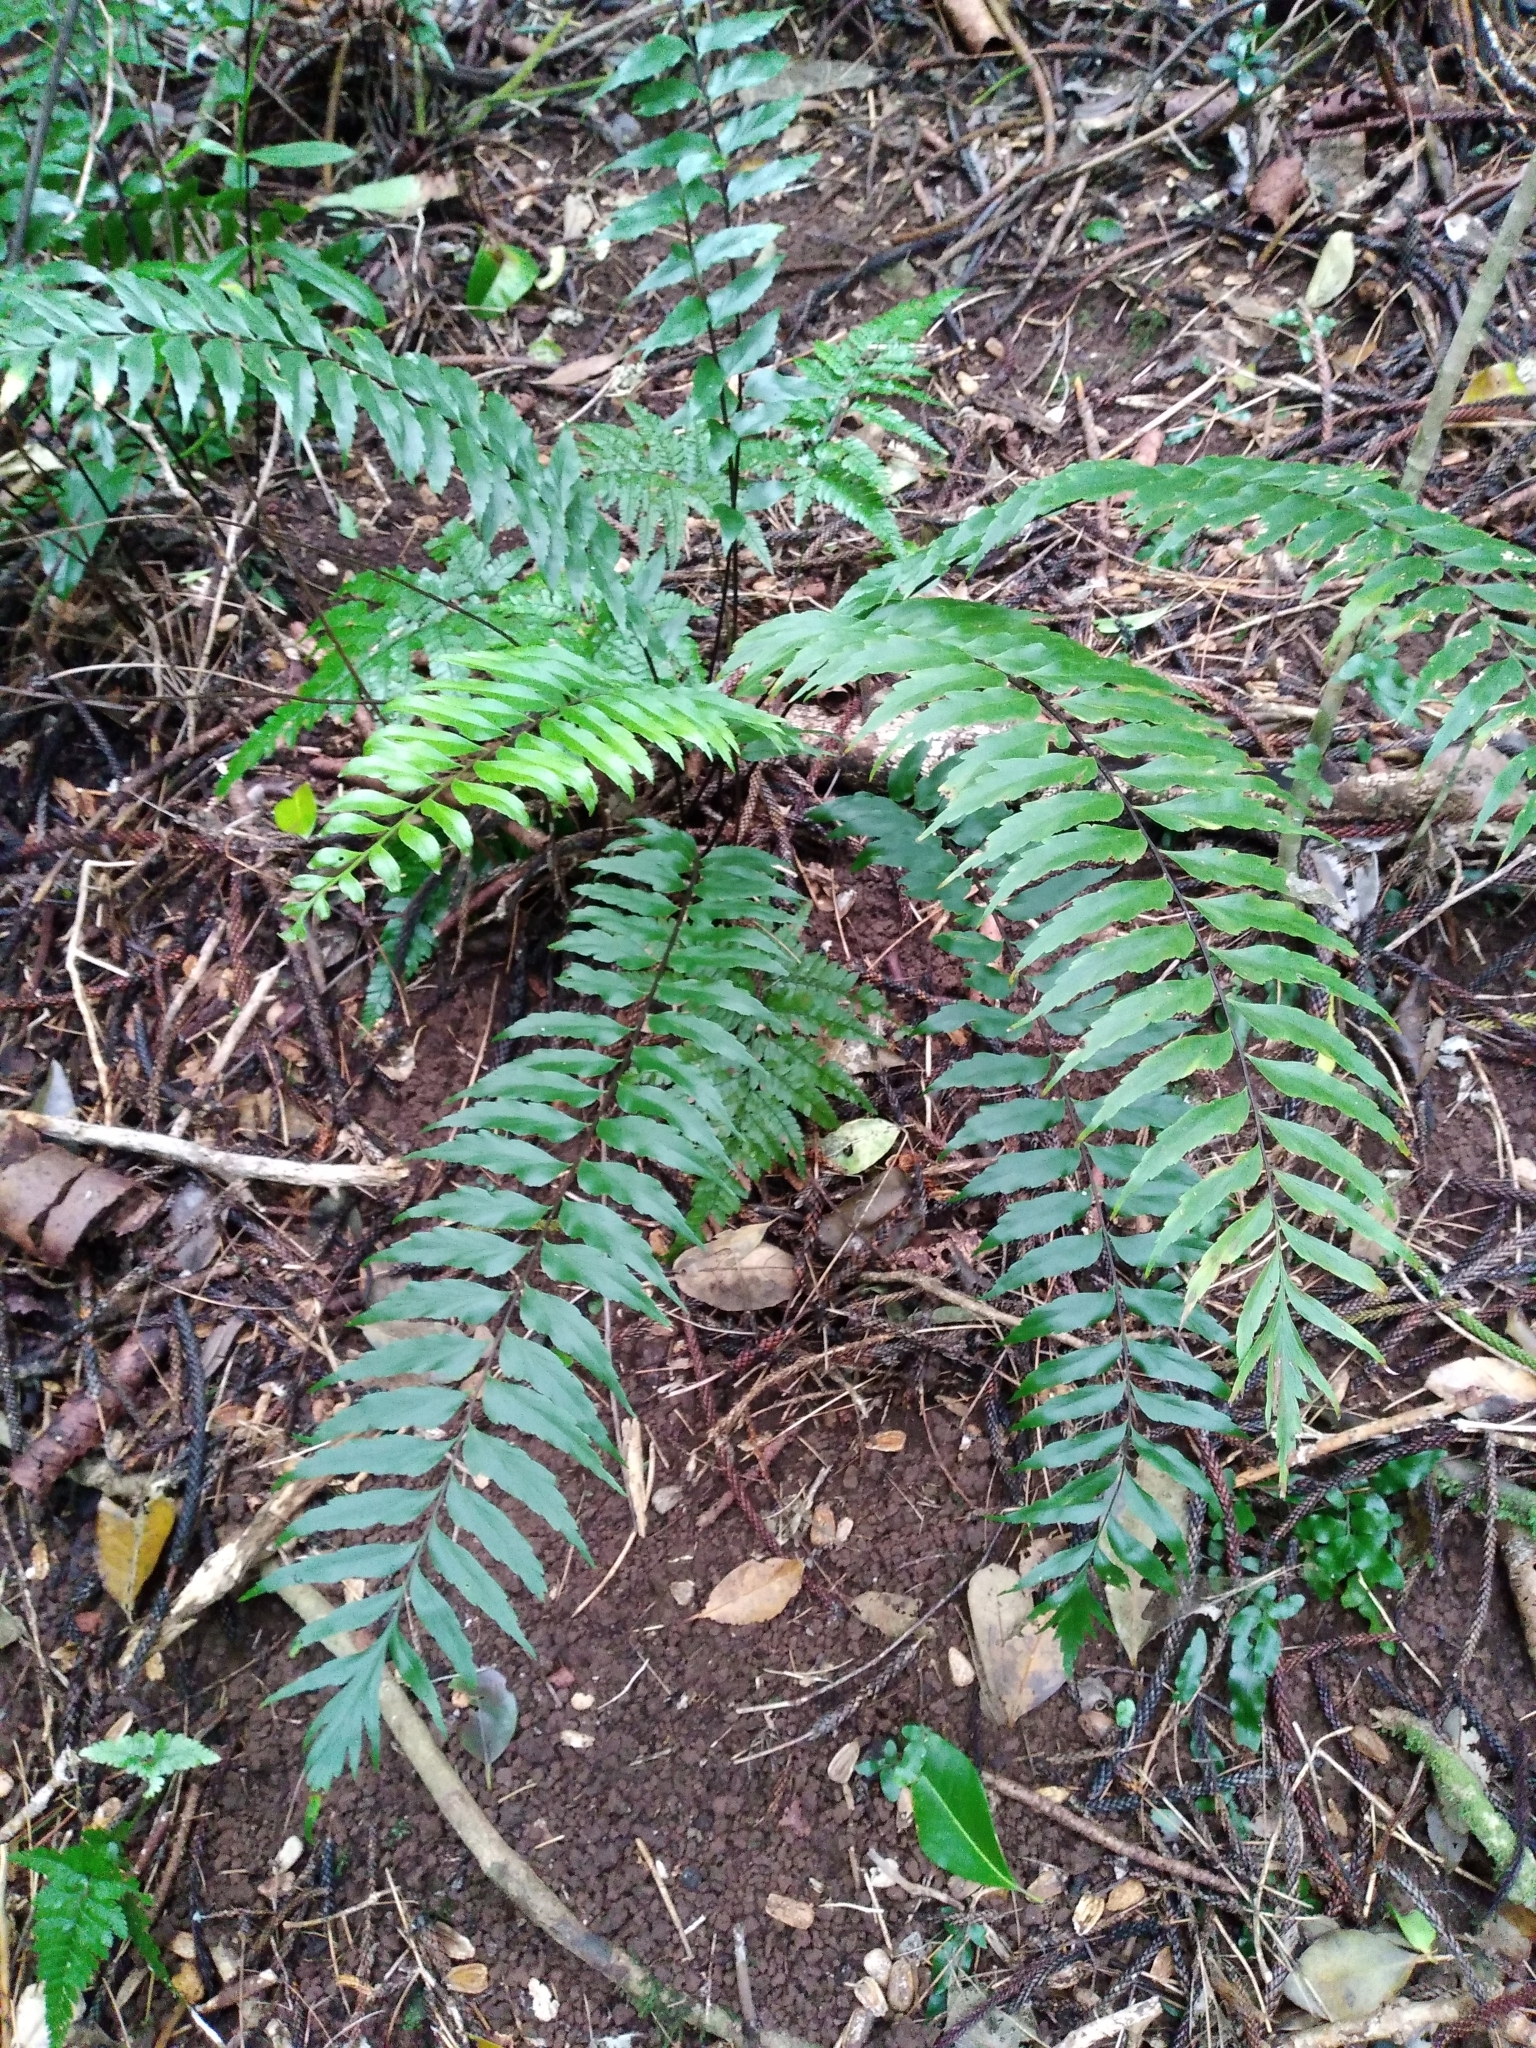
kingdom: Plantae
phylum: Tracheophyta
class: Polypodiopsida
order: Polypodiales
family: Aspleniaceae
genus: Asplenium
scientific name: Asplenium polyodon
